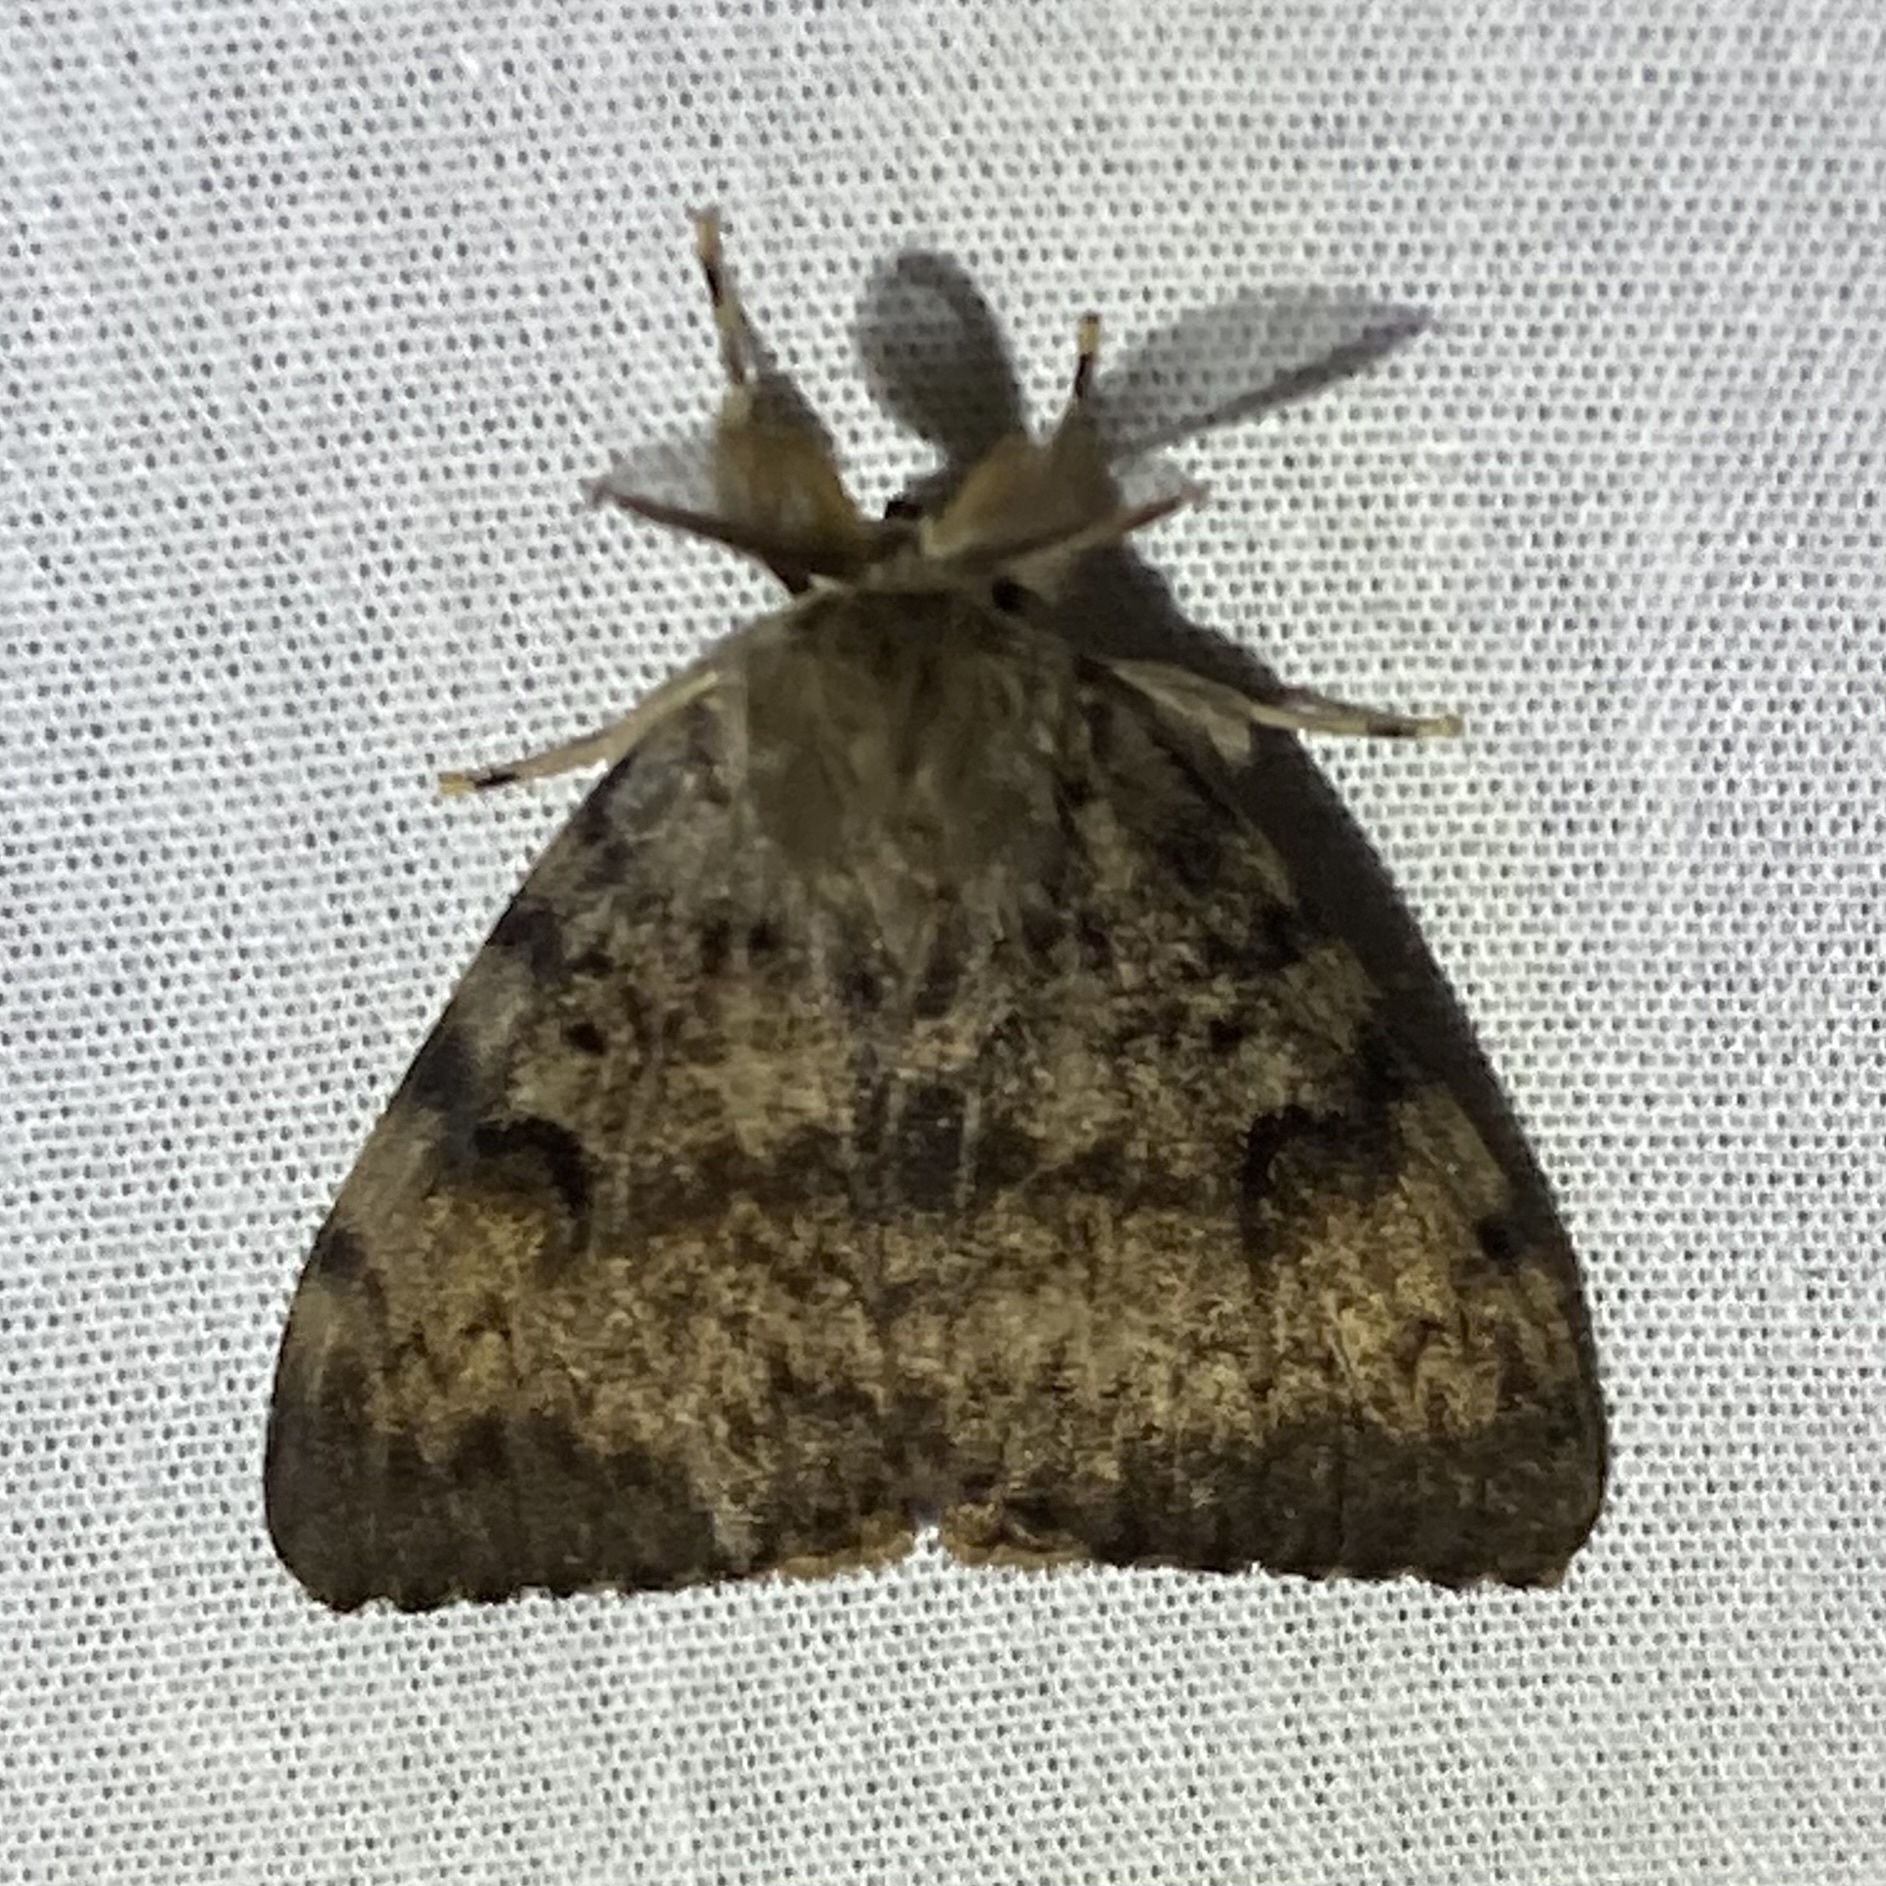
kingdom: Animalia
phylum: Arthropoda
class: Insecta
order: Lepidoptera
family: Erebidae
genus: Lymantria
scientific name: Lymantria dispar
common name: Gypsy moth
